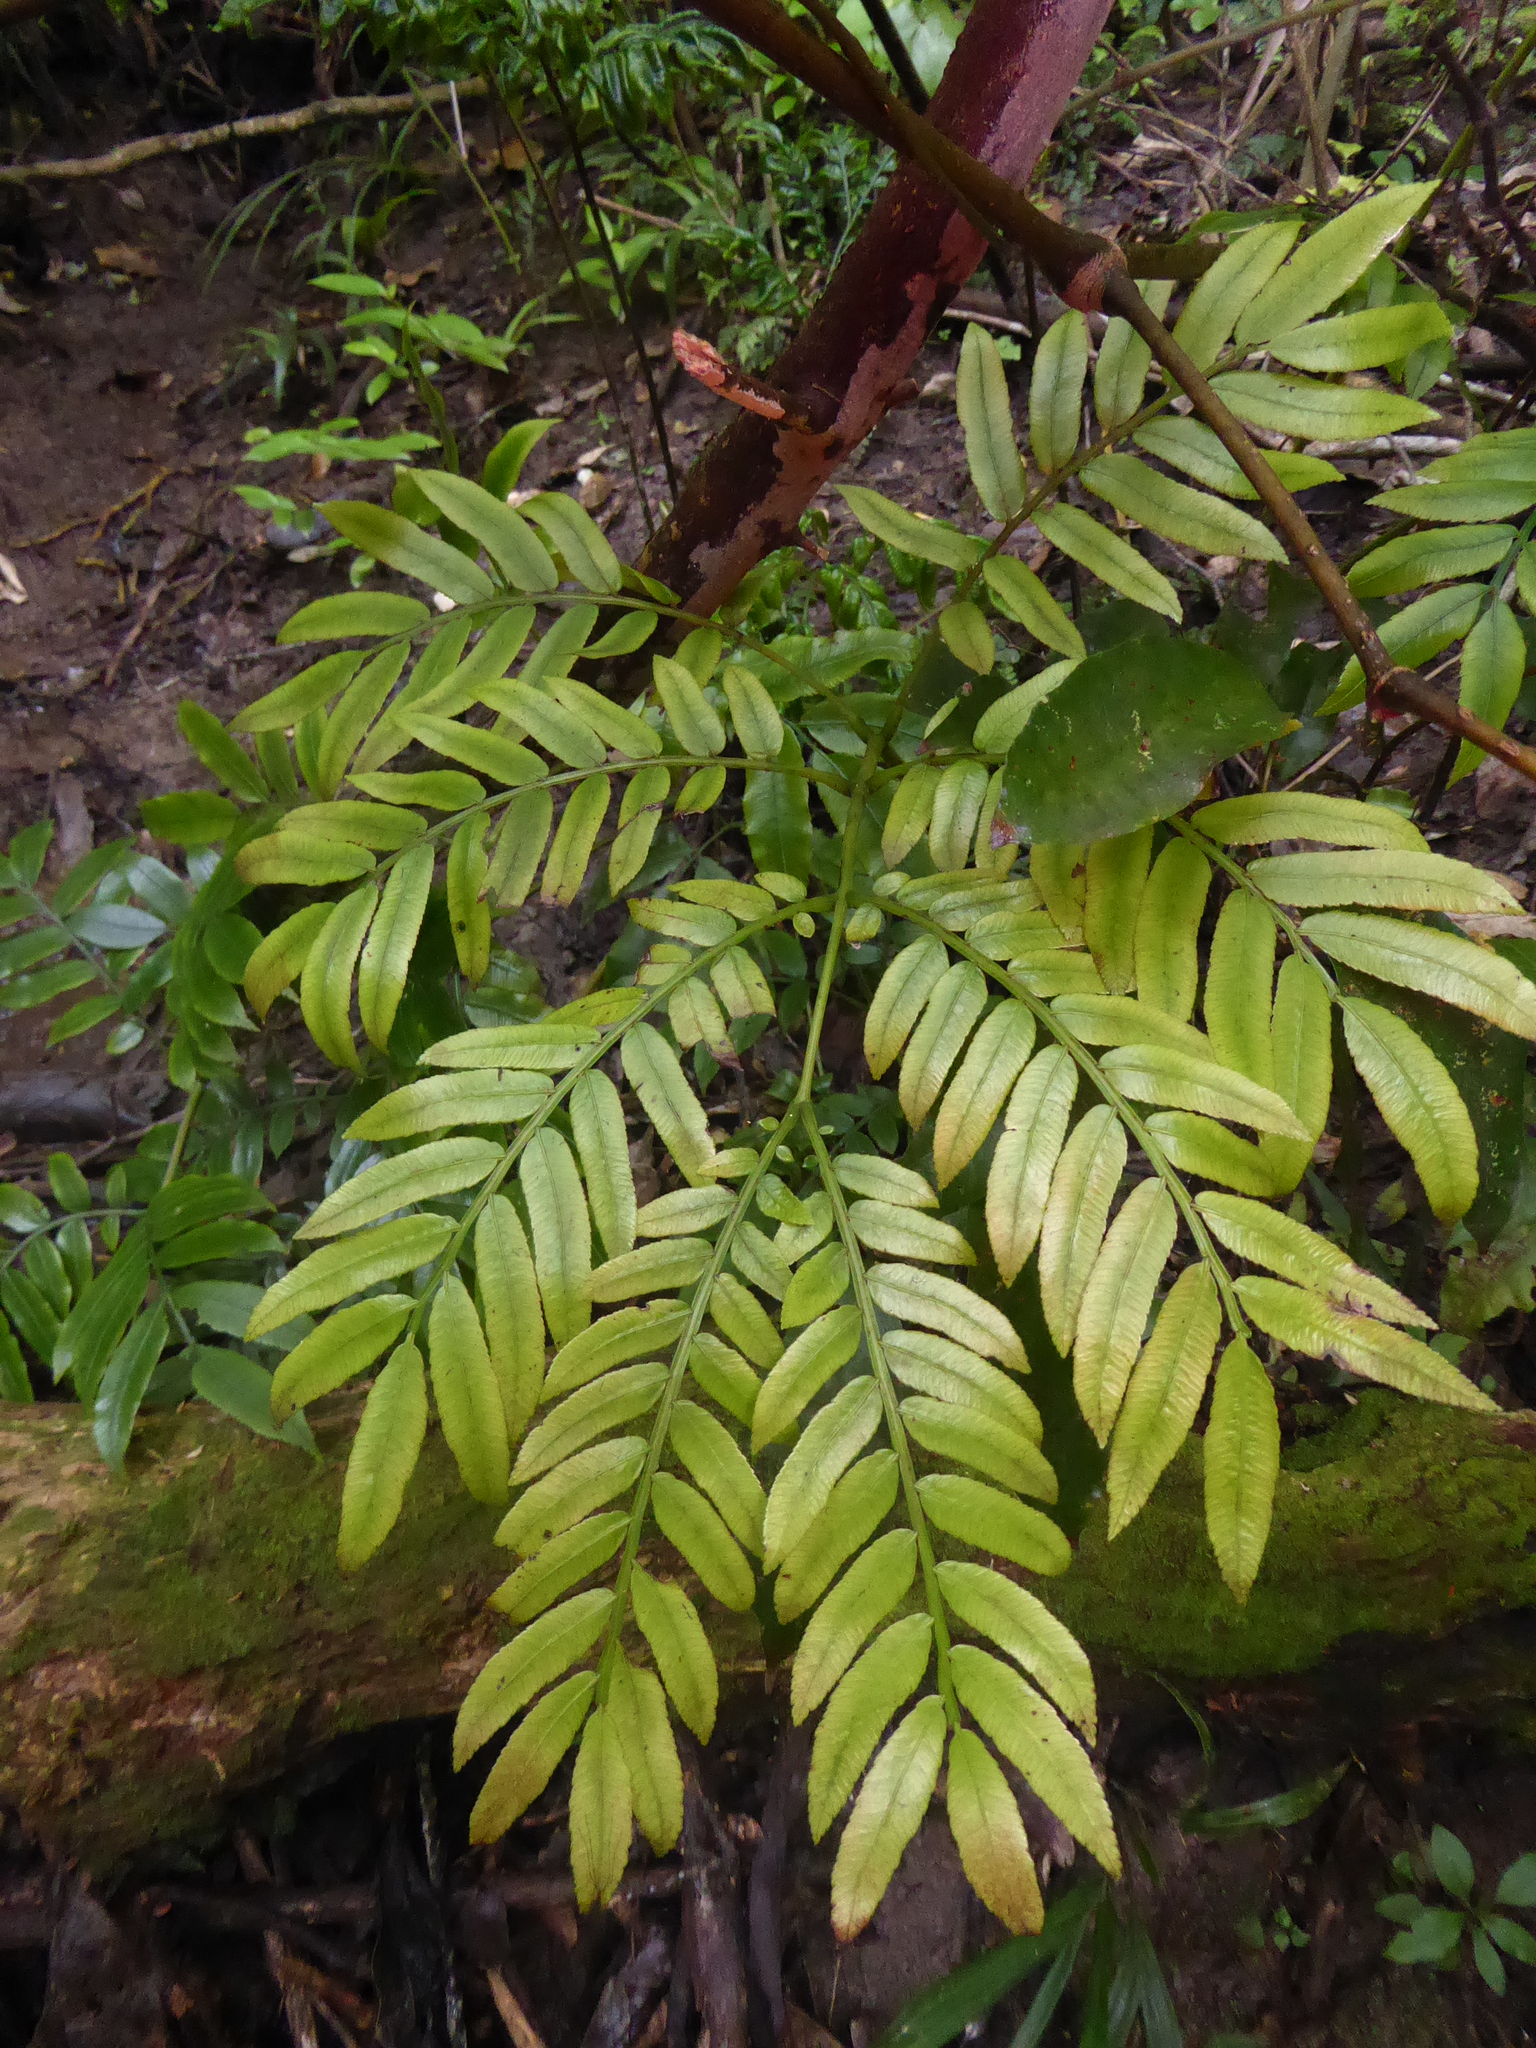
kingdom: Plantae
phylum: Tracheophyta
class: Polypodiopsida
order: Marattiales
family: Marattiaceae
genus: Ptisana
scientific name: Ptisana salicina
